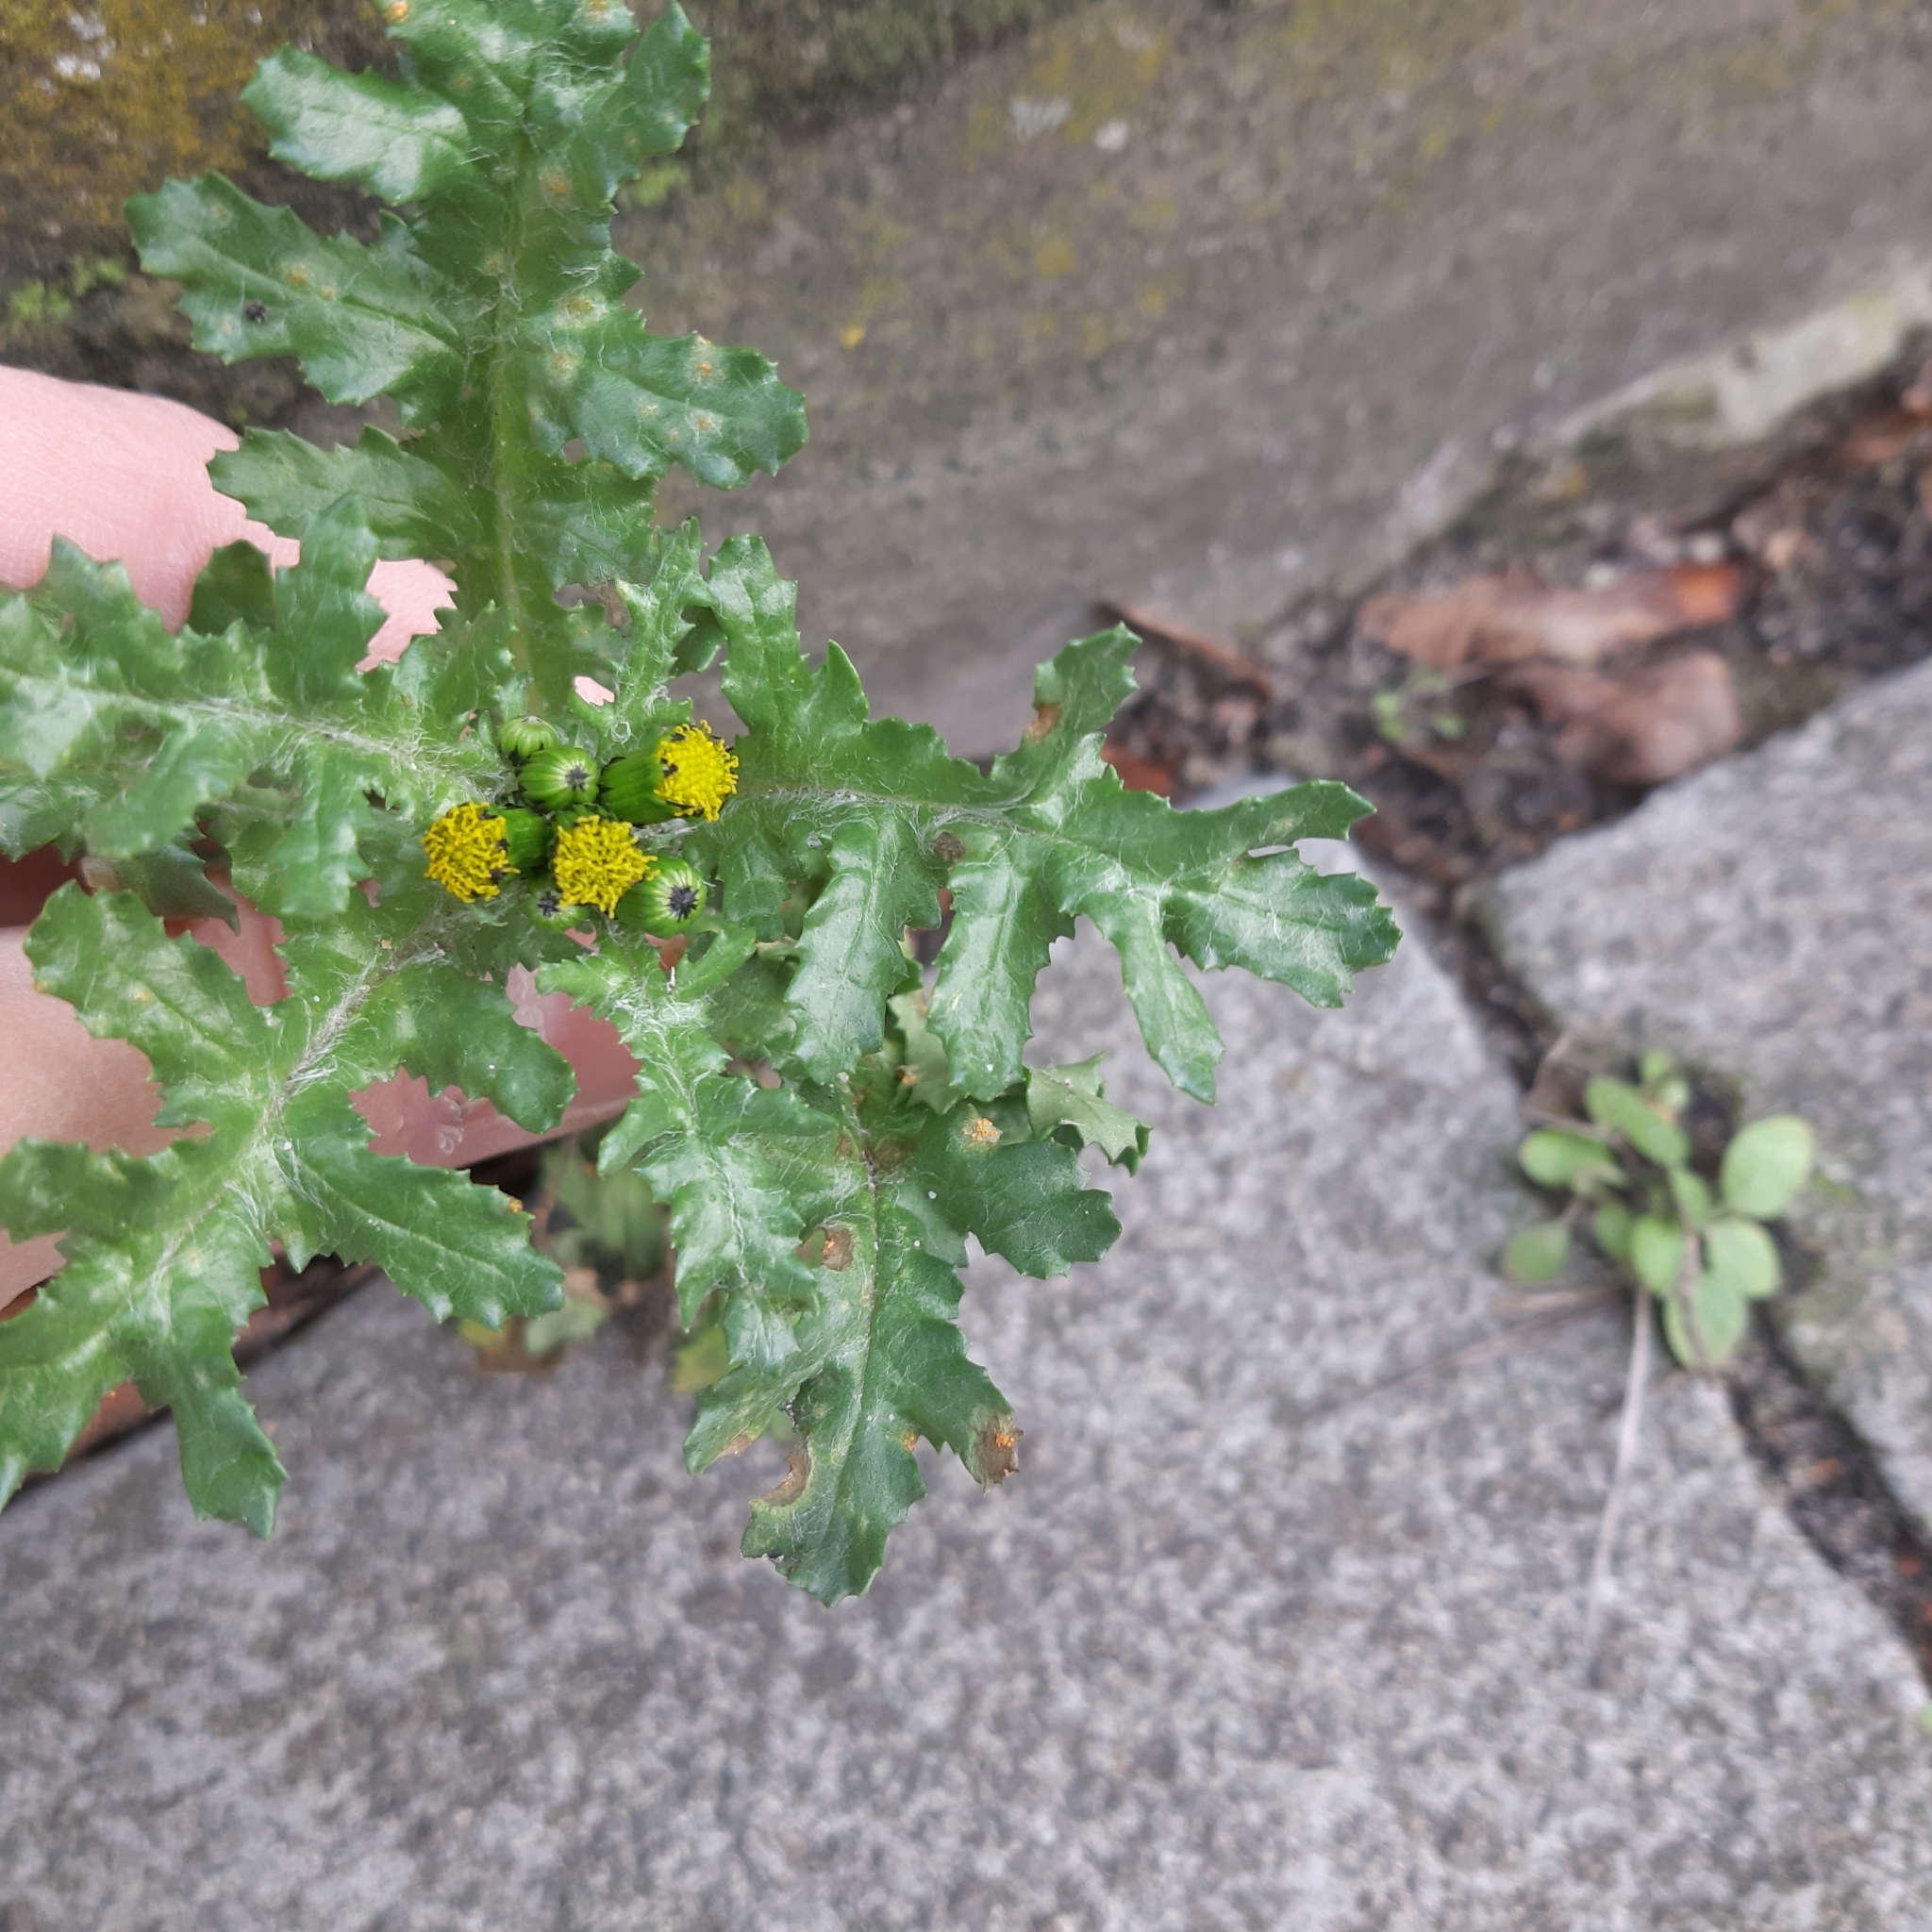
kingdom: Plantae
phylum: Tracheophyta
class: Magnoliopsida
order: Asterales
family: Asteraceae
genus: Senecio
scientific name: Senecio vulgaris
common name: Old-man-in-the-spring
